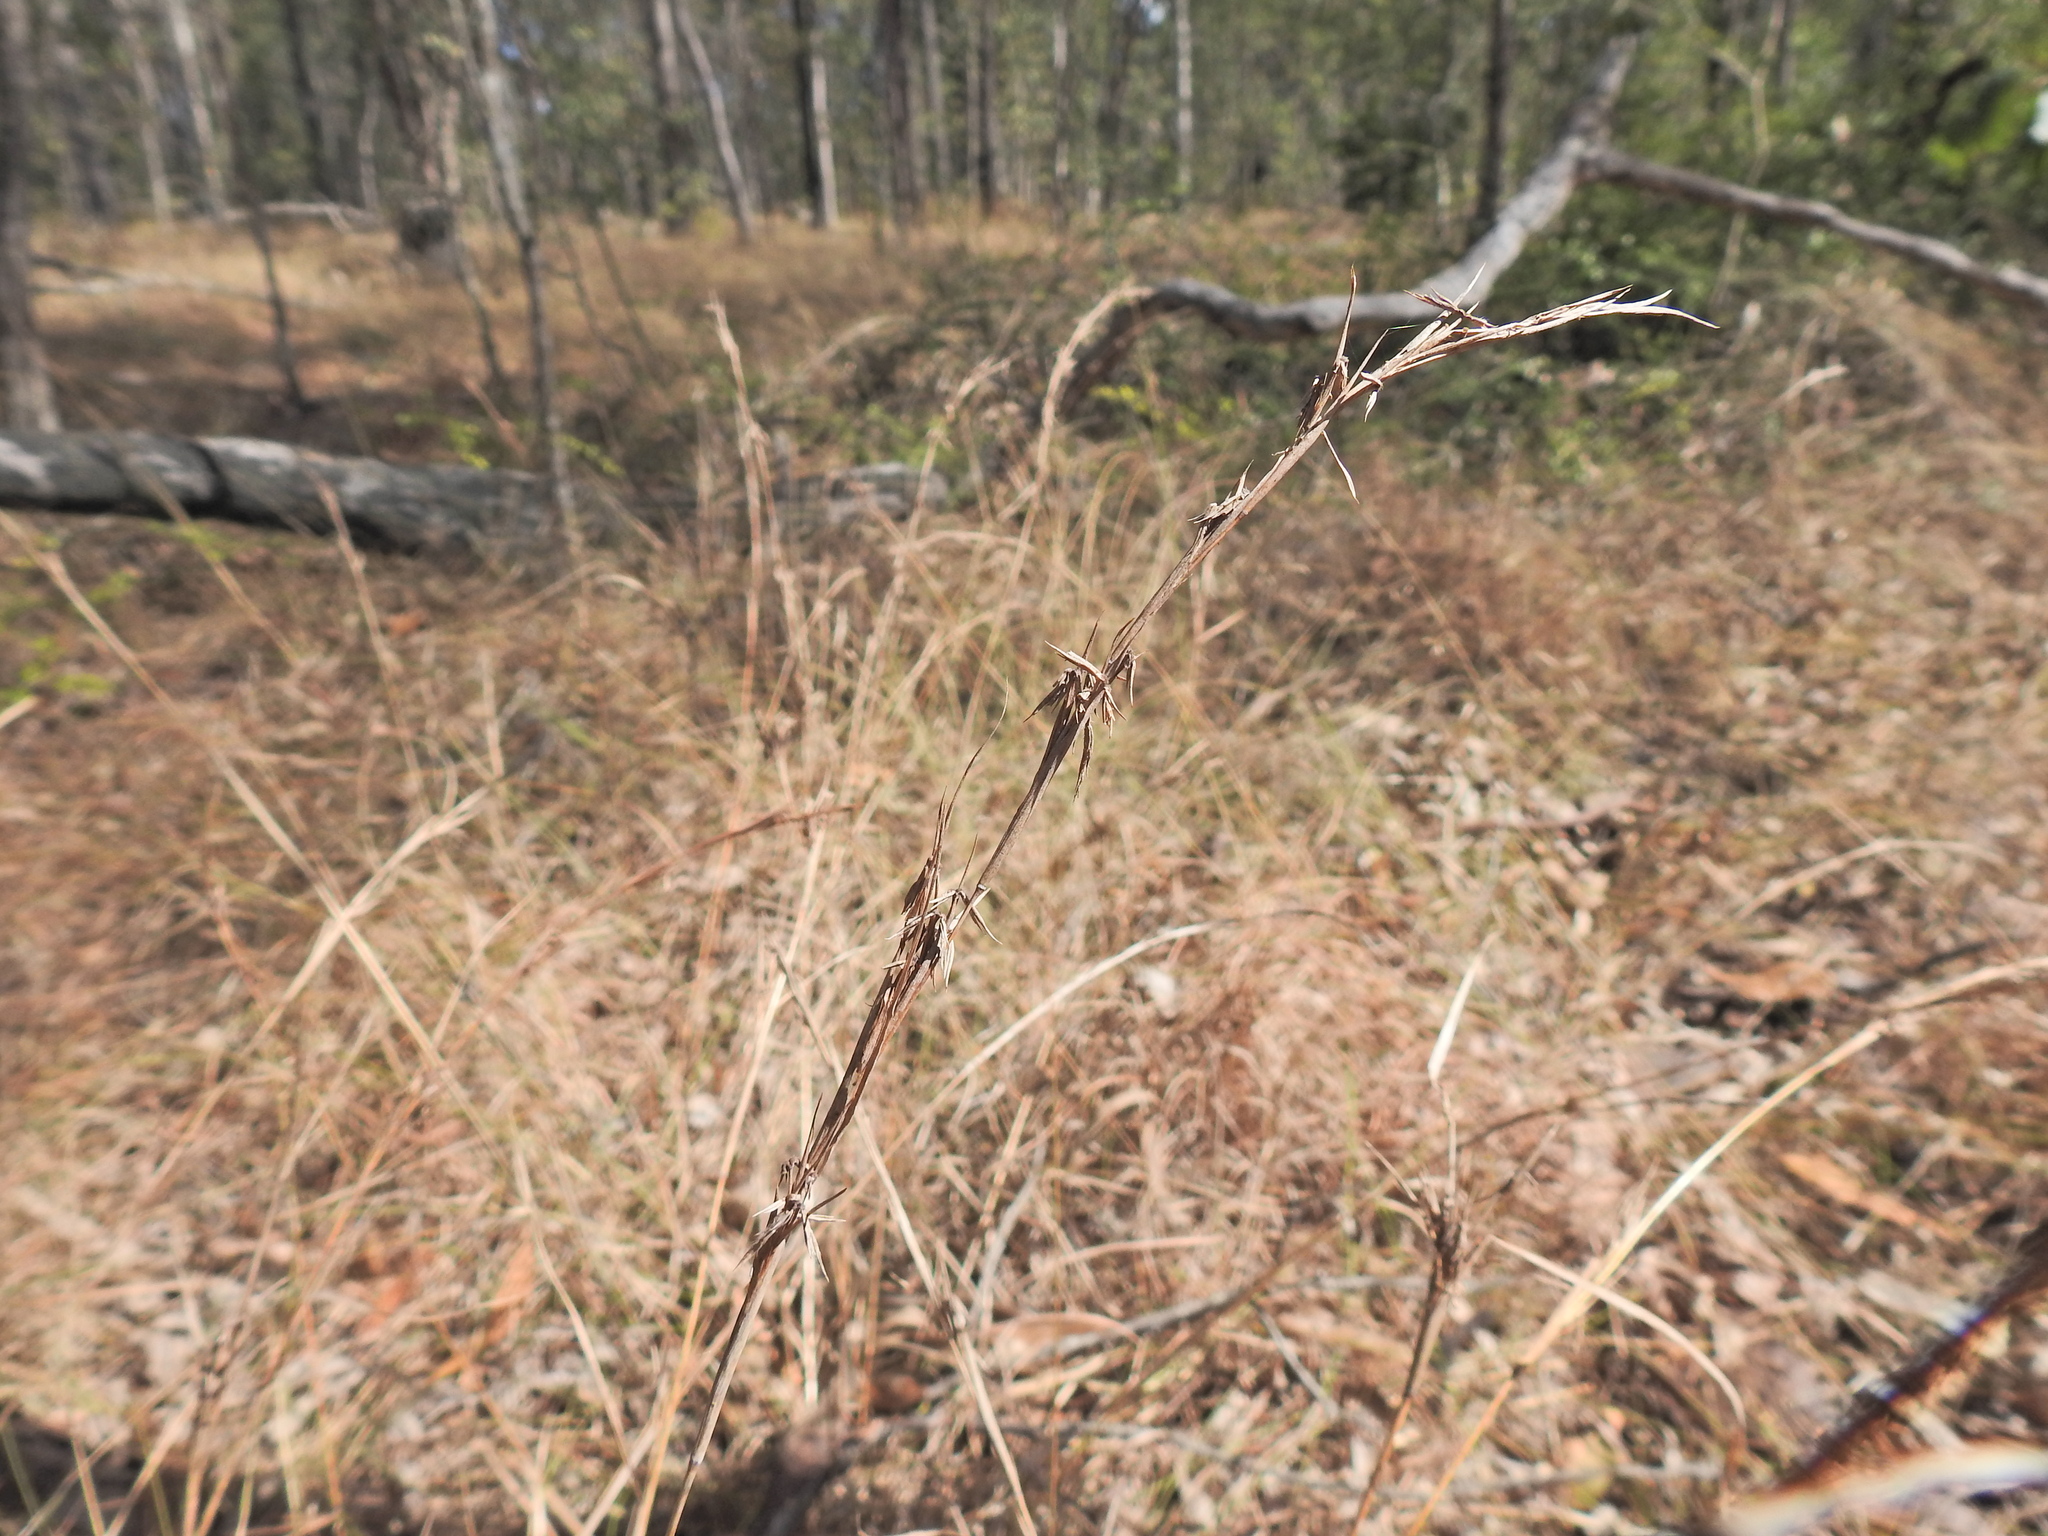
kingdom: Plantae
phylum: Tracheophyta
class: Liliopsida
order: Poales
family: Poaceae
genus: Cymbopogon
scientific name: Cymbopogon refractus
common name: Barbwire grass
